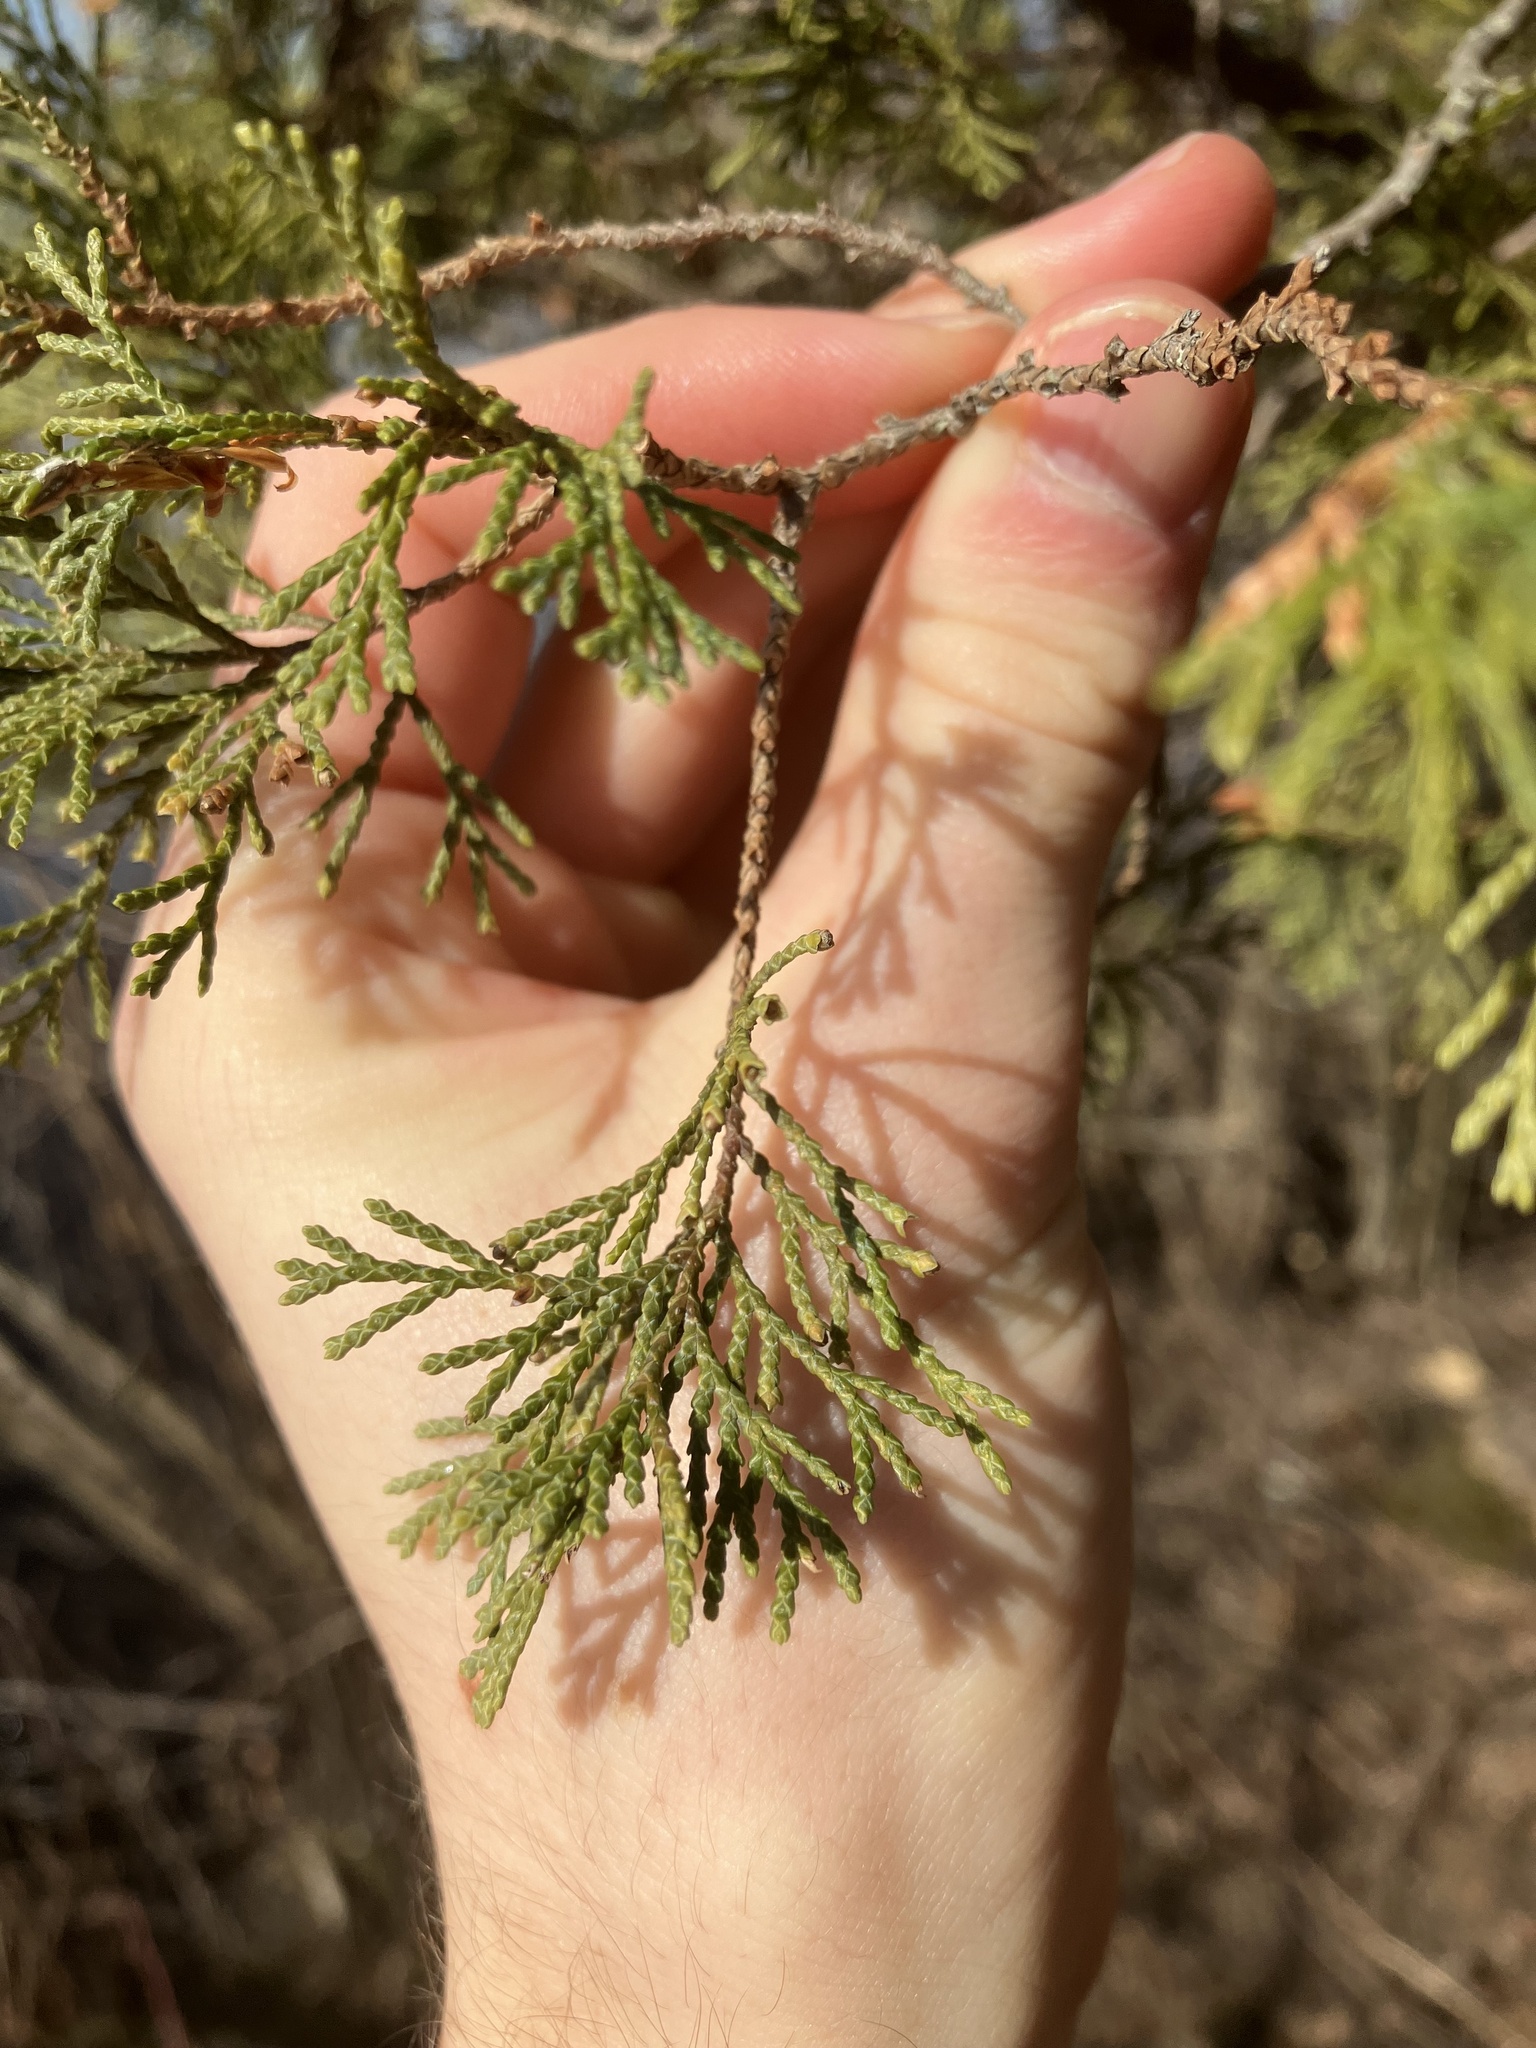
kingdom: Plantae
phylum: Tracheophyta
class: Pinopsida
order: Pinales
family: Cupressaceae
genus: Chamaecyparis
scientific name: Chamaecyparis thyoides
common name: Atlantic white cedar
